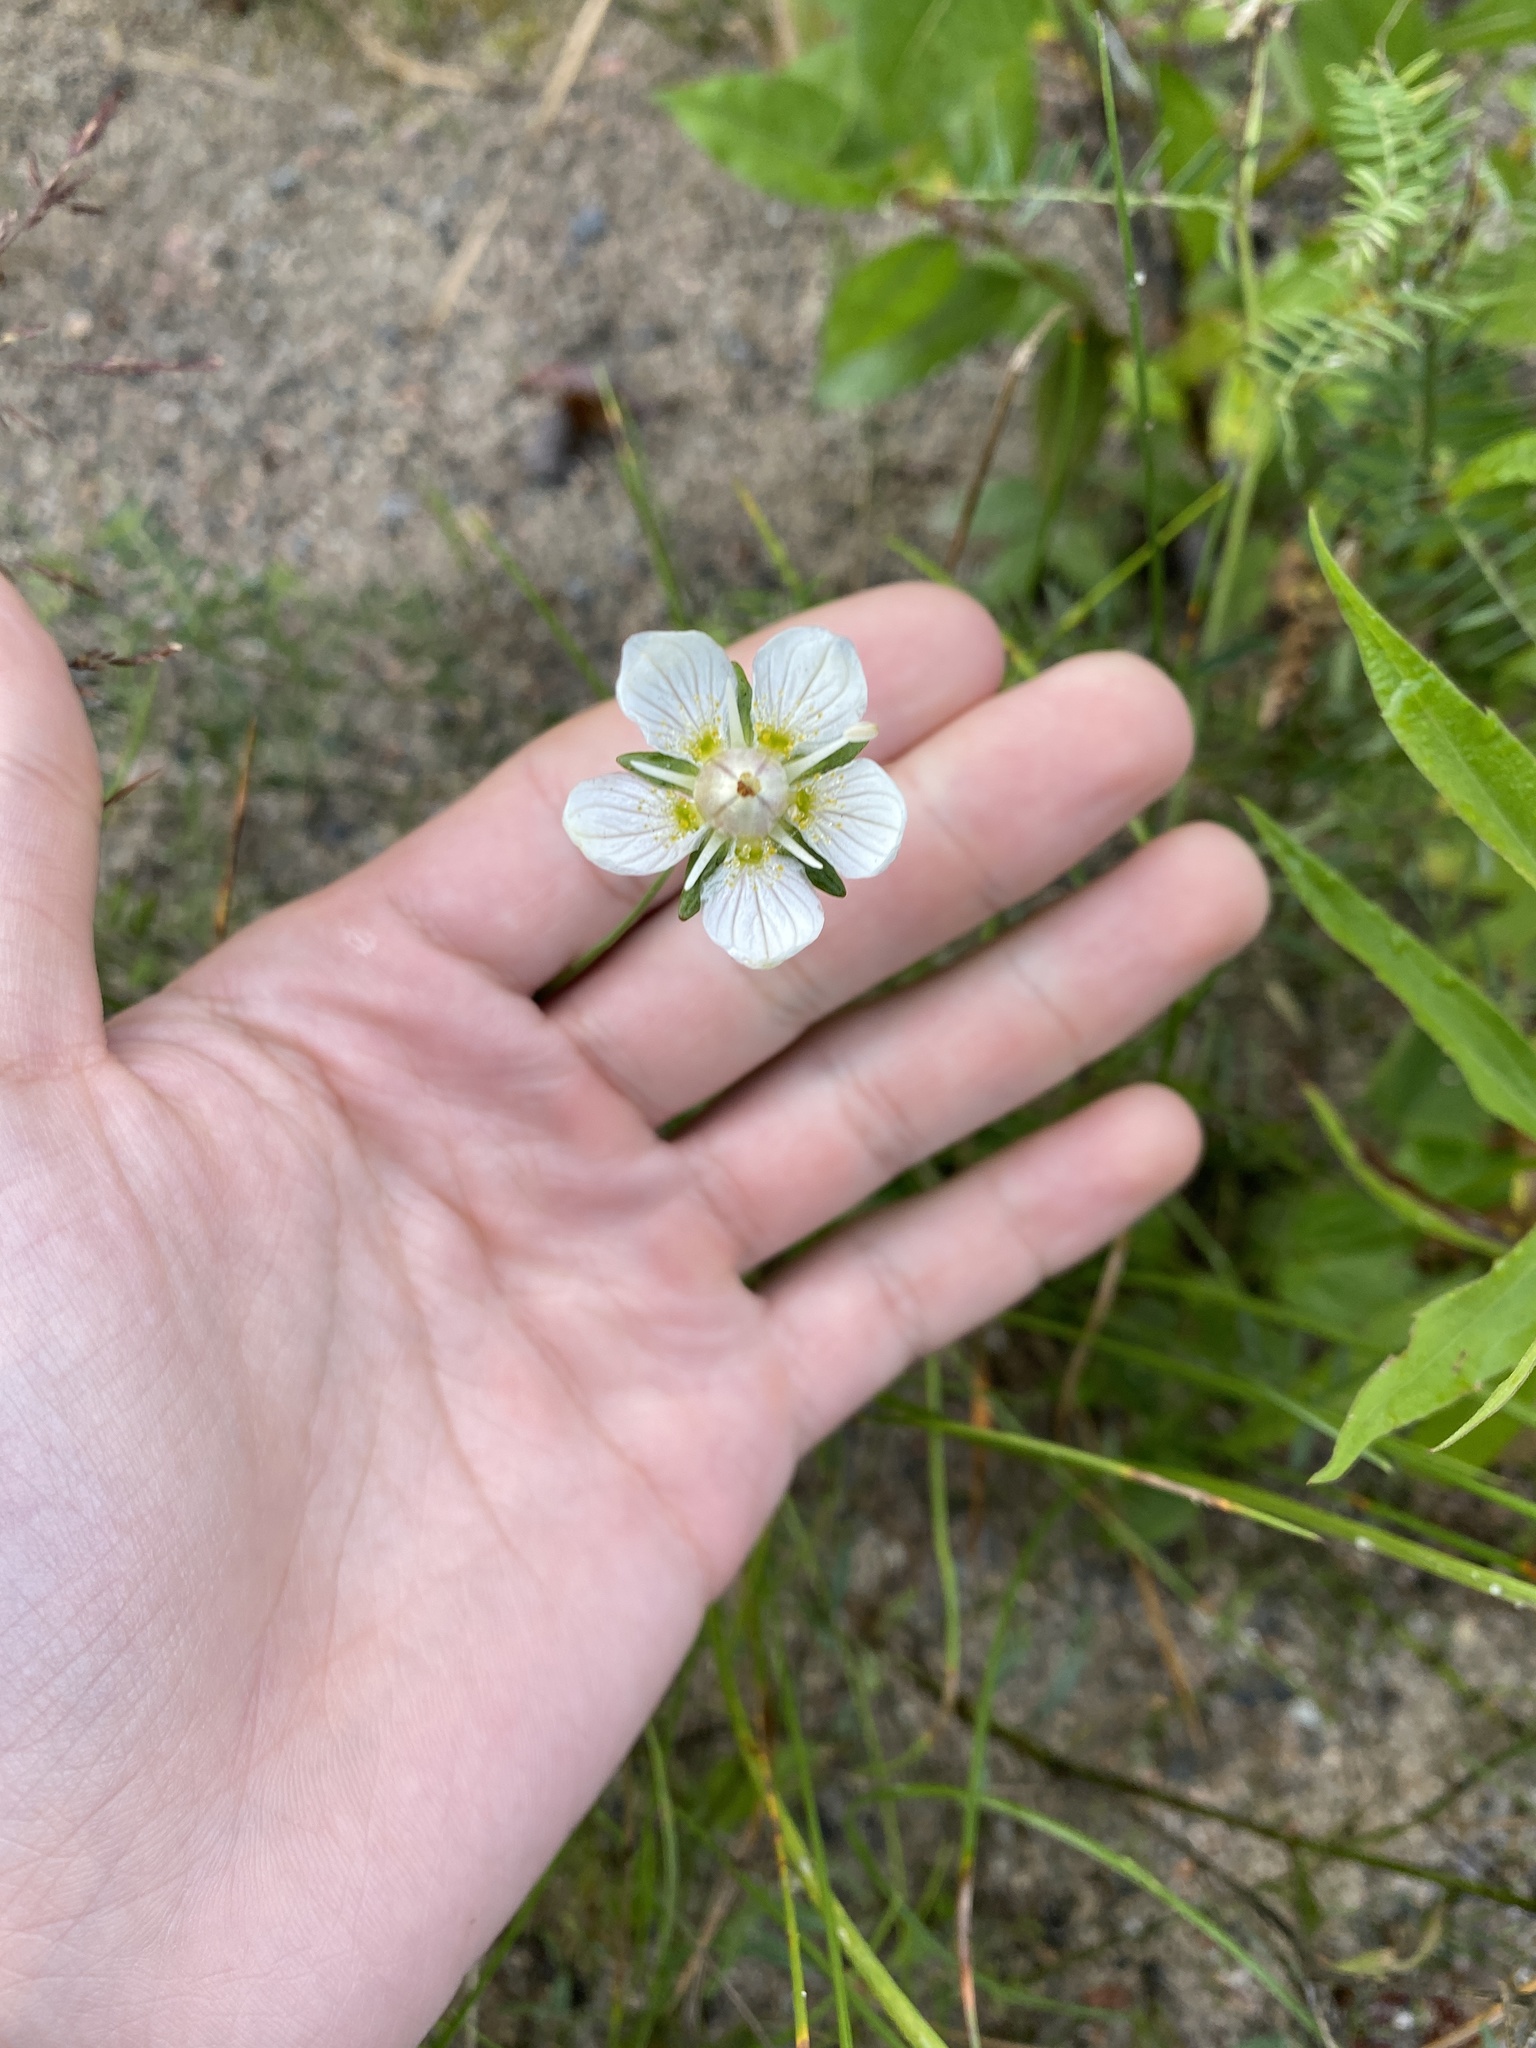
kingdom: Plantae
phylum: Tracheophyta
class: Magnoliopsida
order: Celastrales
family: Parnassiaceae
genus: Parnassia
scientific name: Parnassia palustris
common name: Grass-of-parnassus
